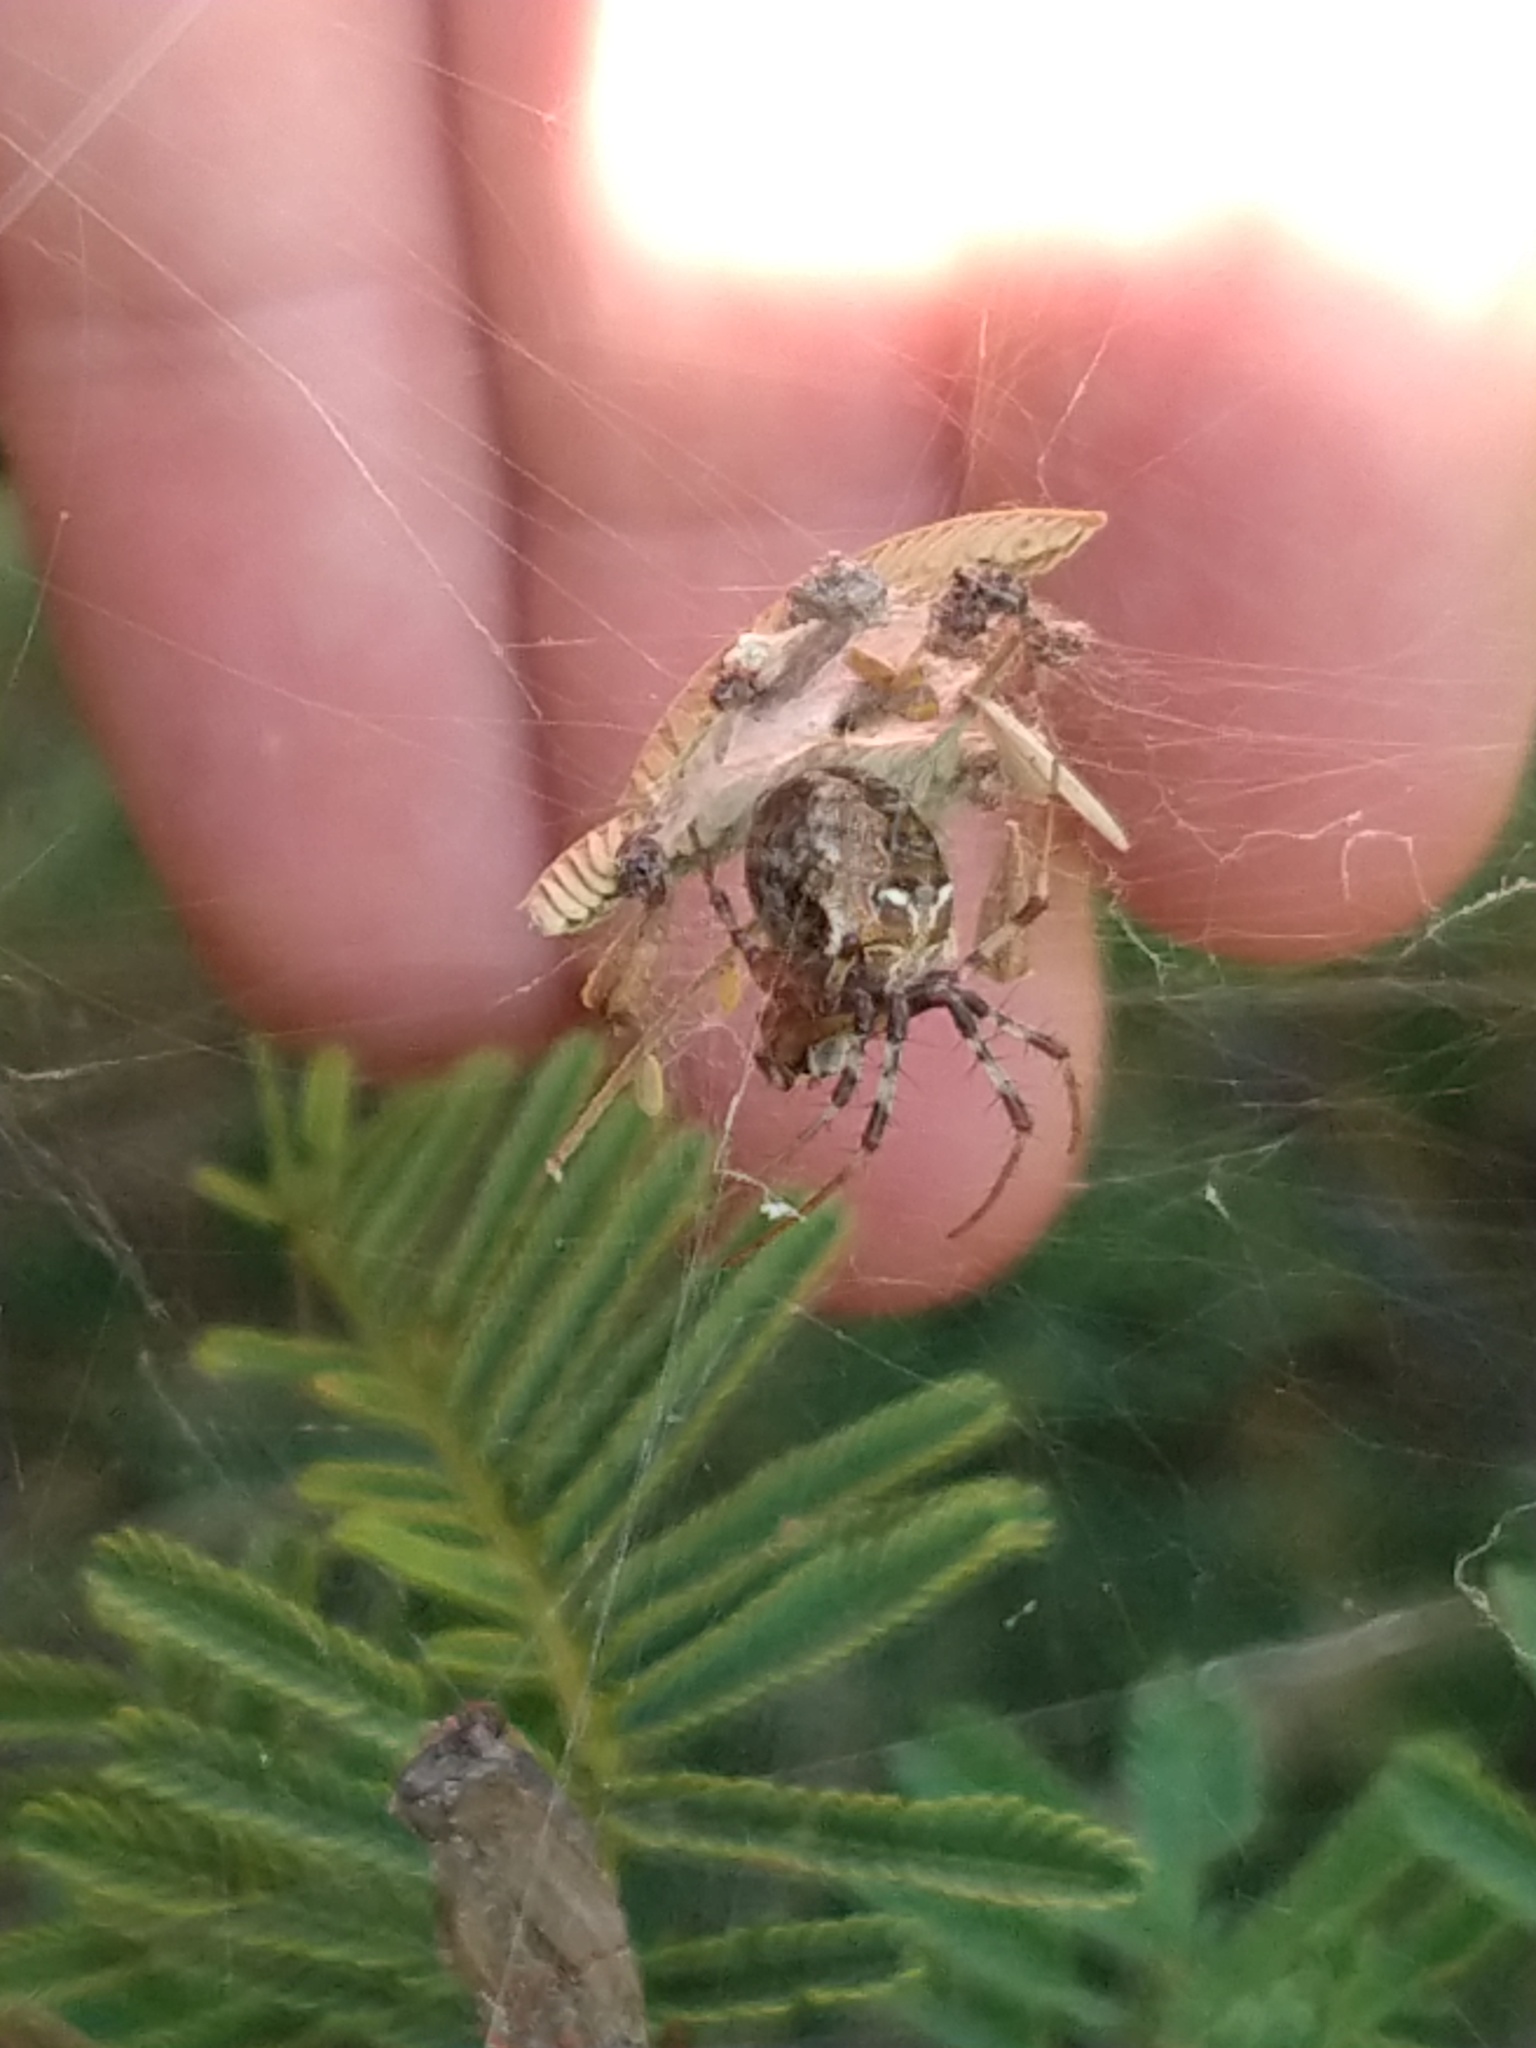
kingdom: Animalia
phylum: Arthropoda
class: Arachnida
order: Araneae
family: Araneidae
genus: Metepeira
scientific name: Metepeira
